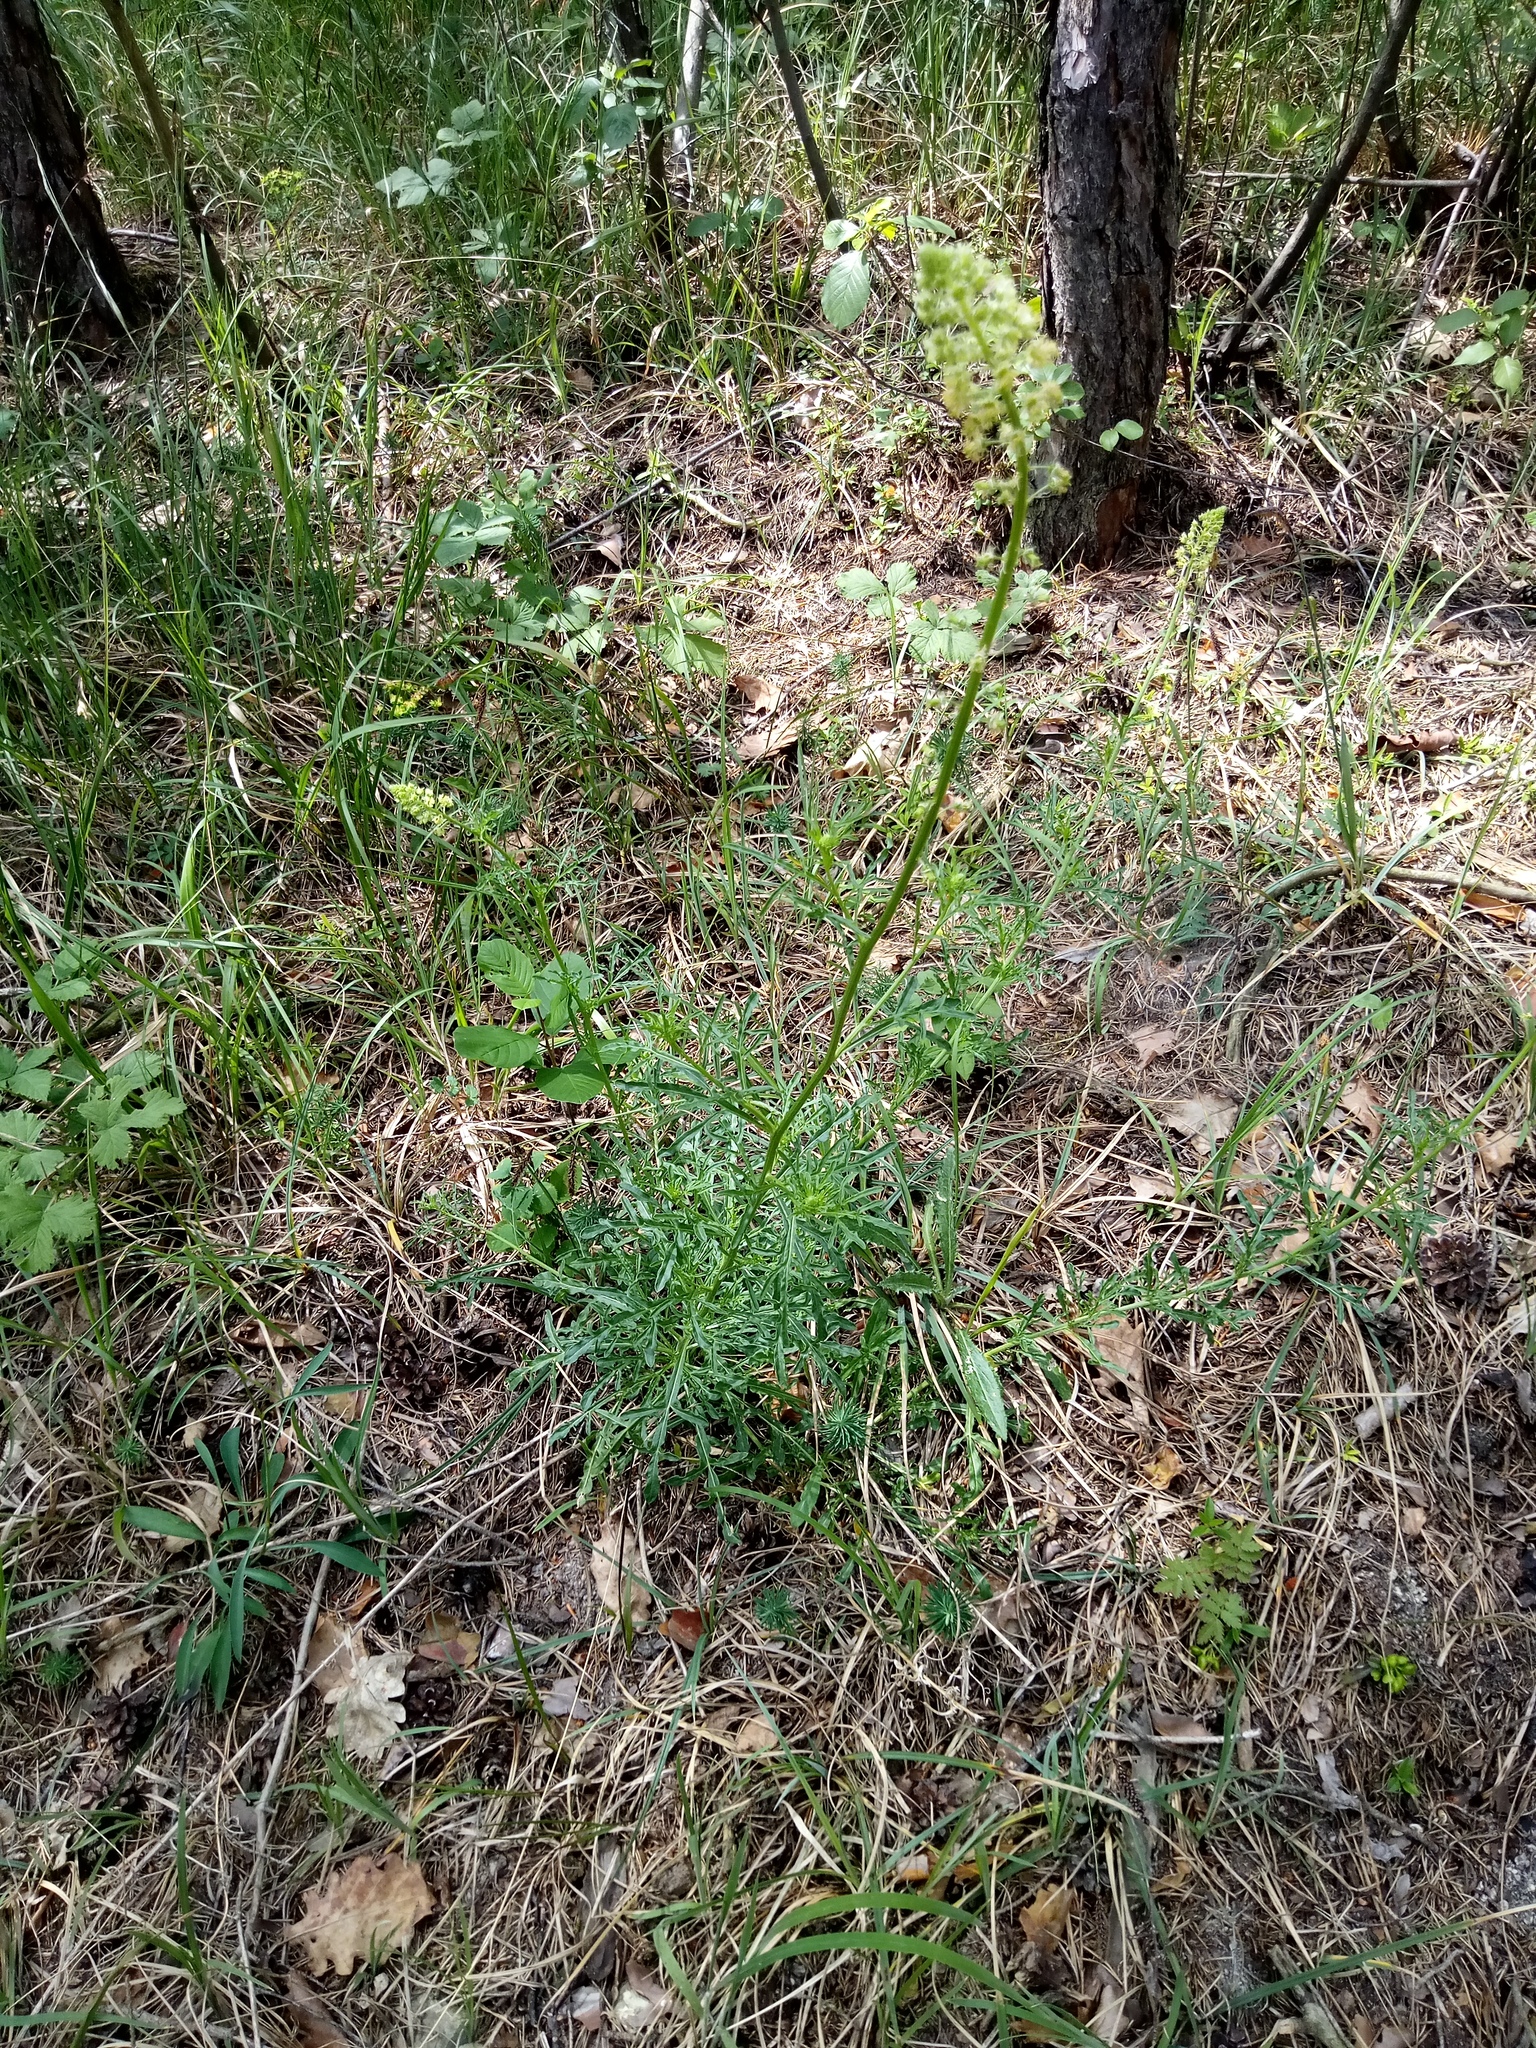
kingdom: Plantae
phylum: Tracheophyta
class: Magnoliopsida
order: Brassicales
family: Resedaceae
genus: Reseda
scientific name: Reseda lutea
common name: Wild mignonette
